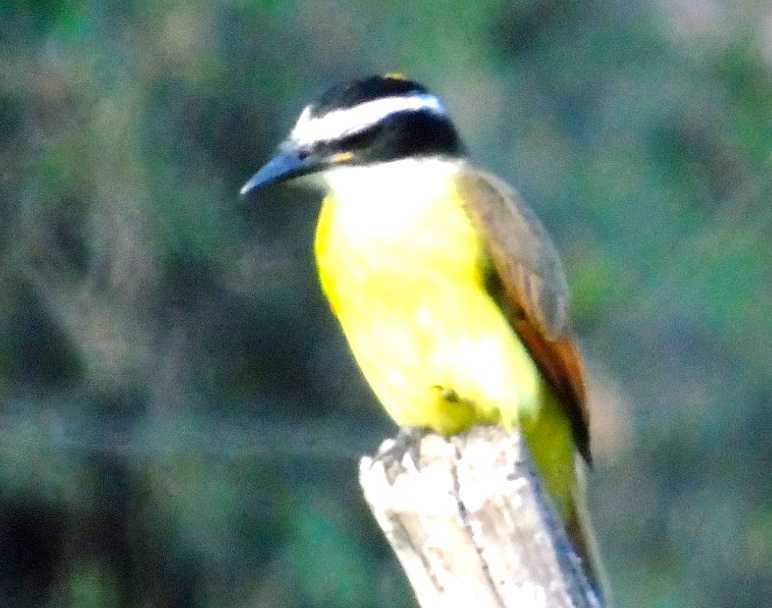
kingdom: Animalia
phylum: Chordata
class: Aves
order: Passeriformes
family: Tyrannidae
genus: Pitangus
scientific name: Pitangus sulphuratus
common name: Great kiskadee
